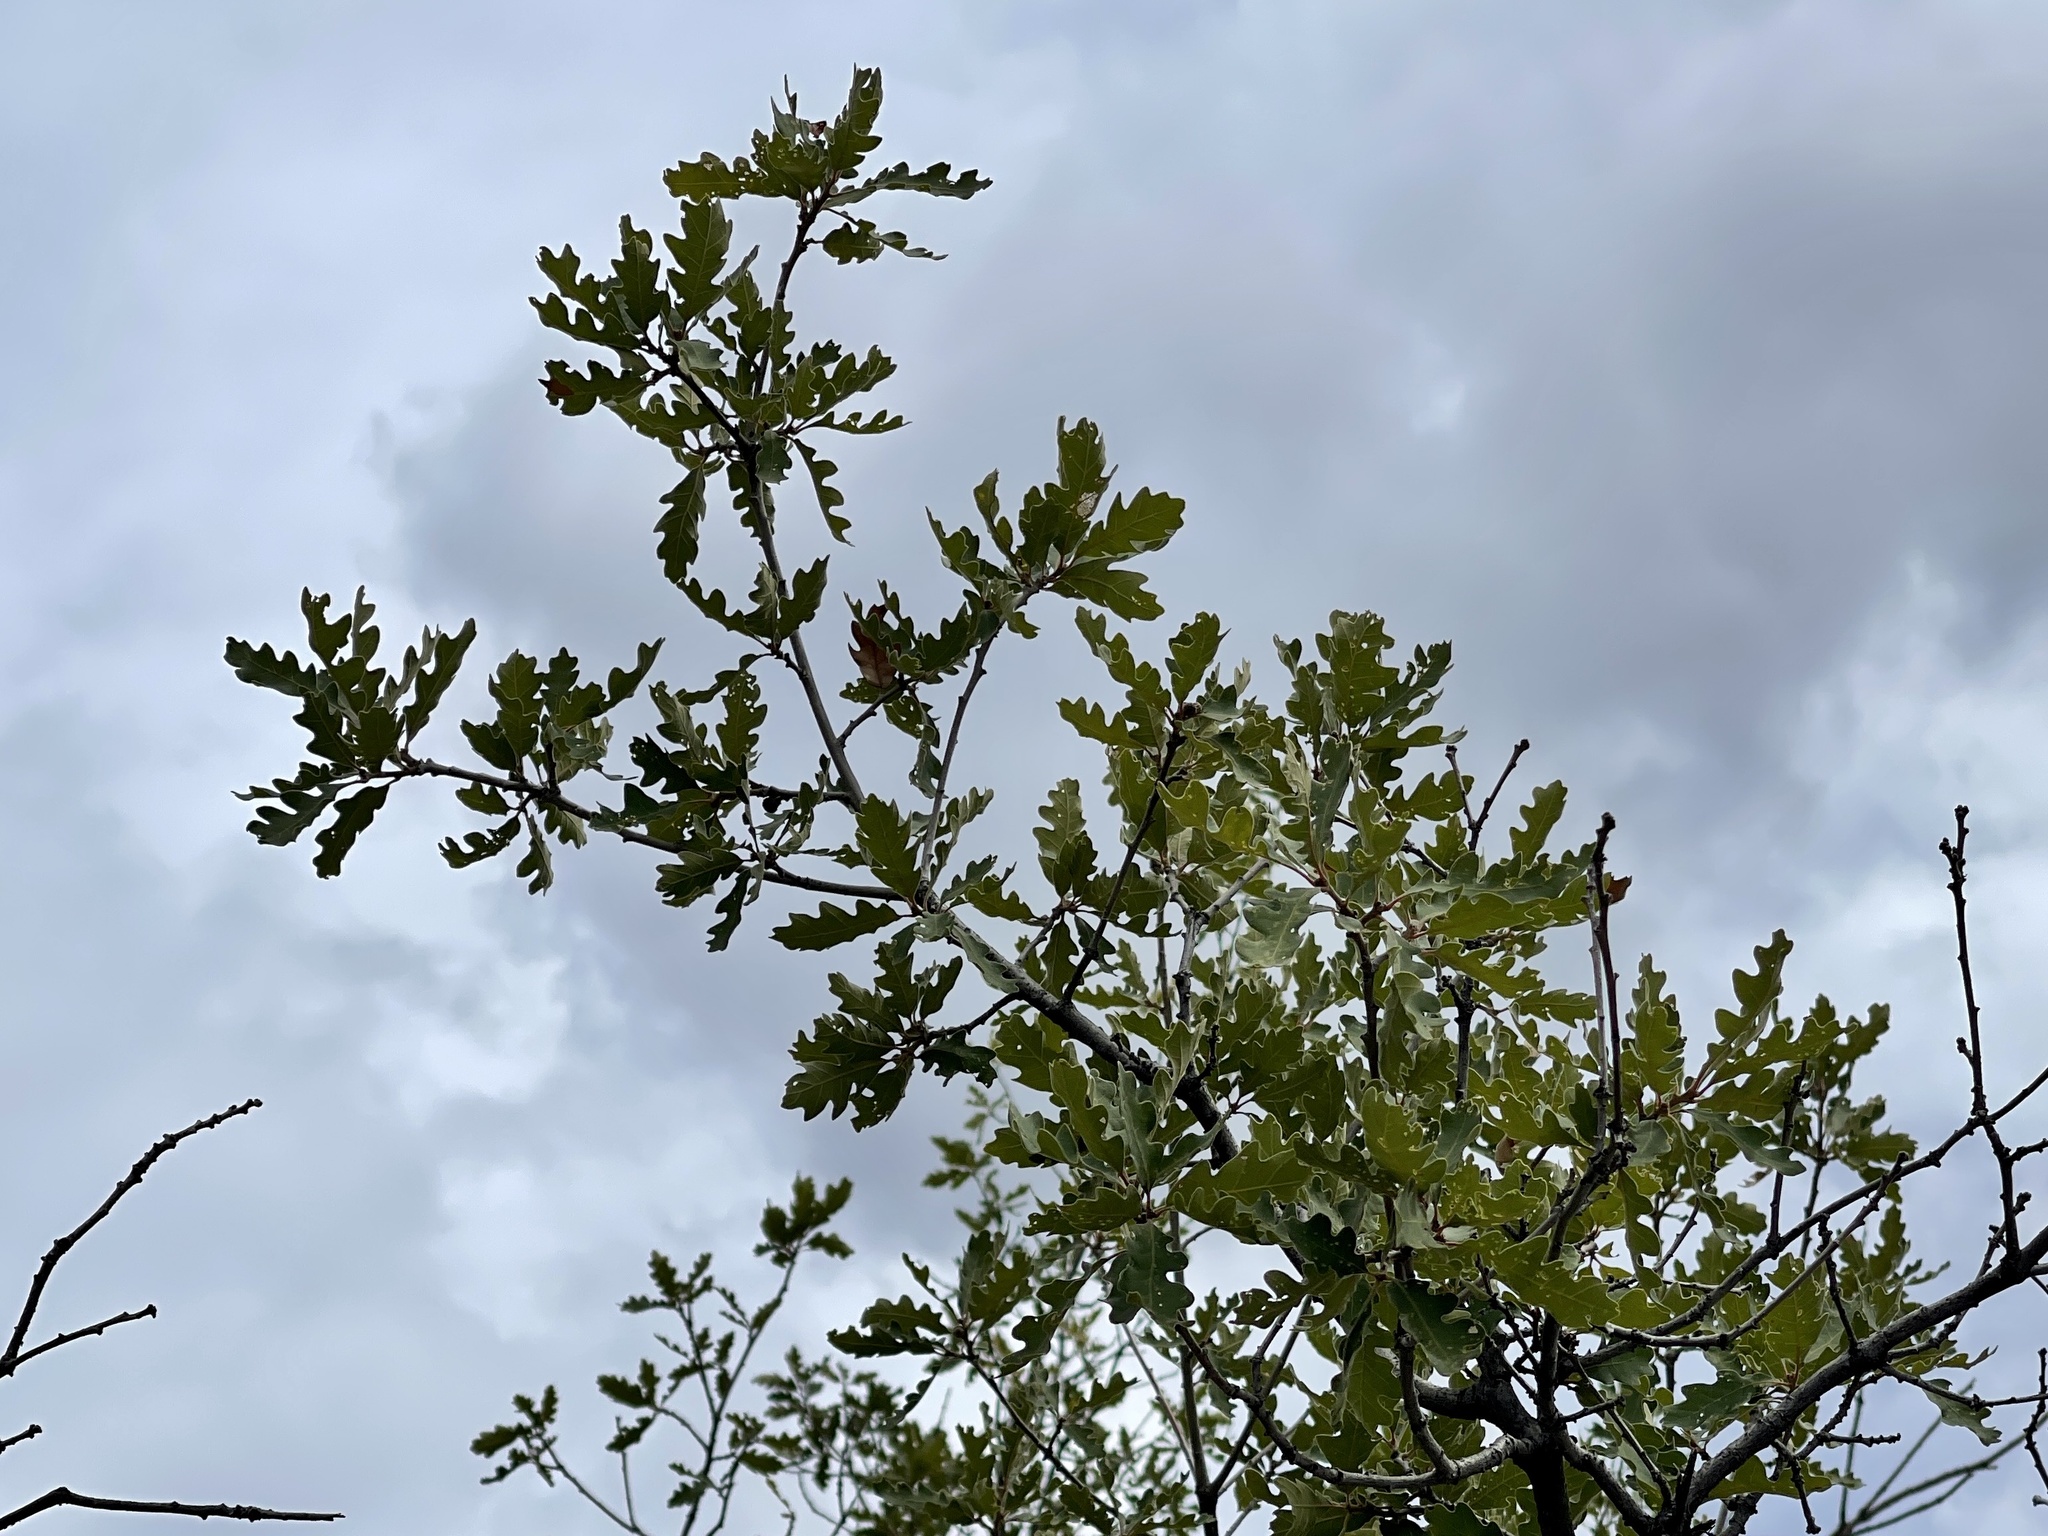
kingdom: Plantae
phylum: Tracheophyta
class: Magnoliopsida
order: Fagales
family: Fagaceae
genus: Quercus
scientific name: Quercus gambelii
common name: Gambel oak
